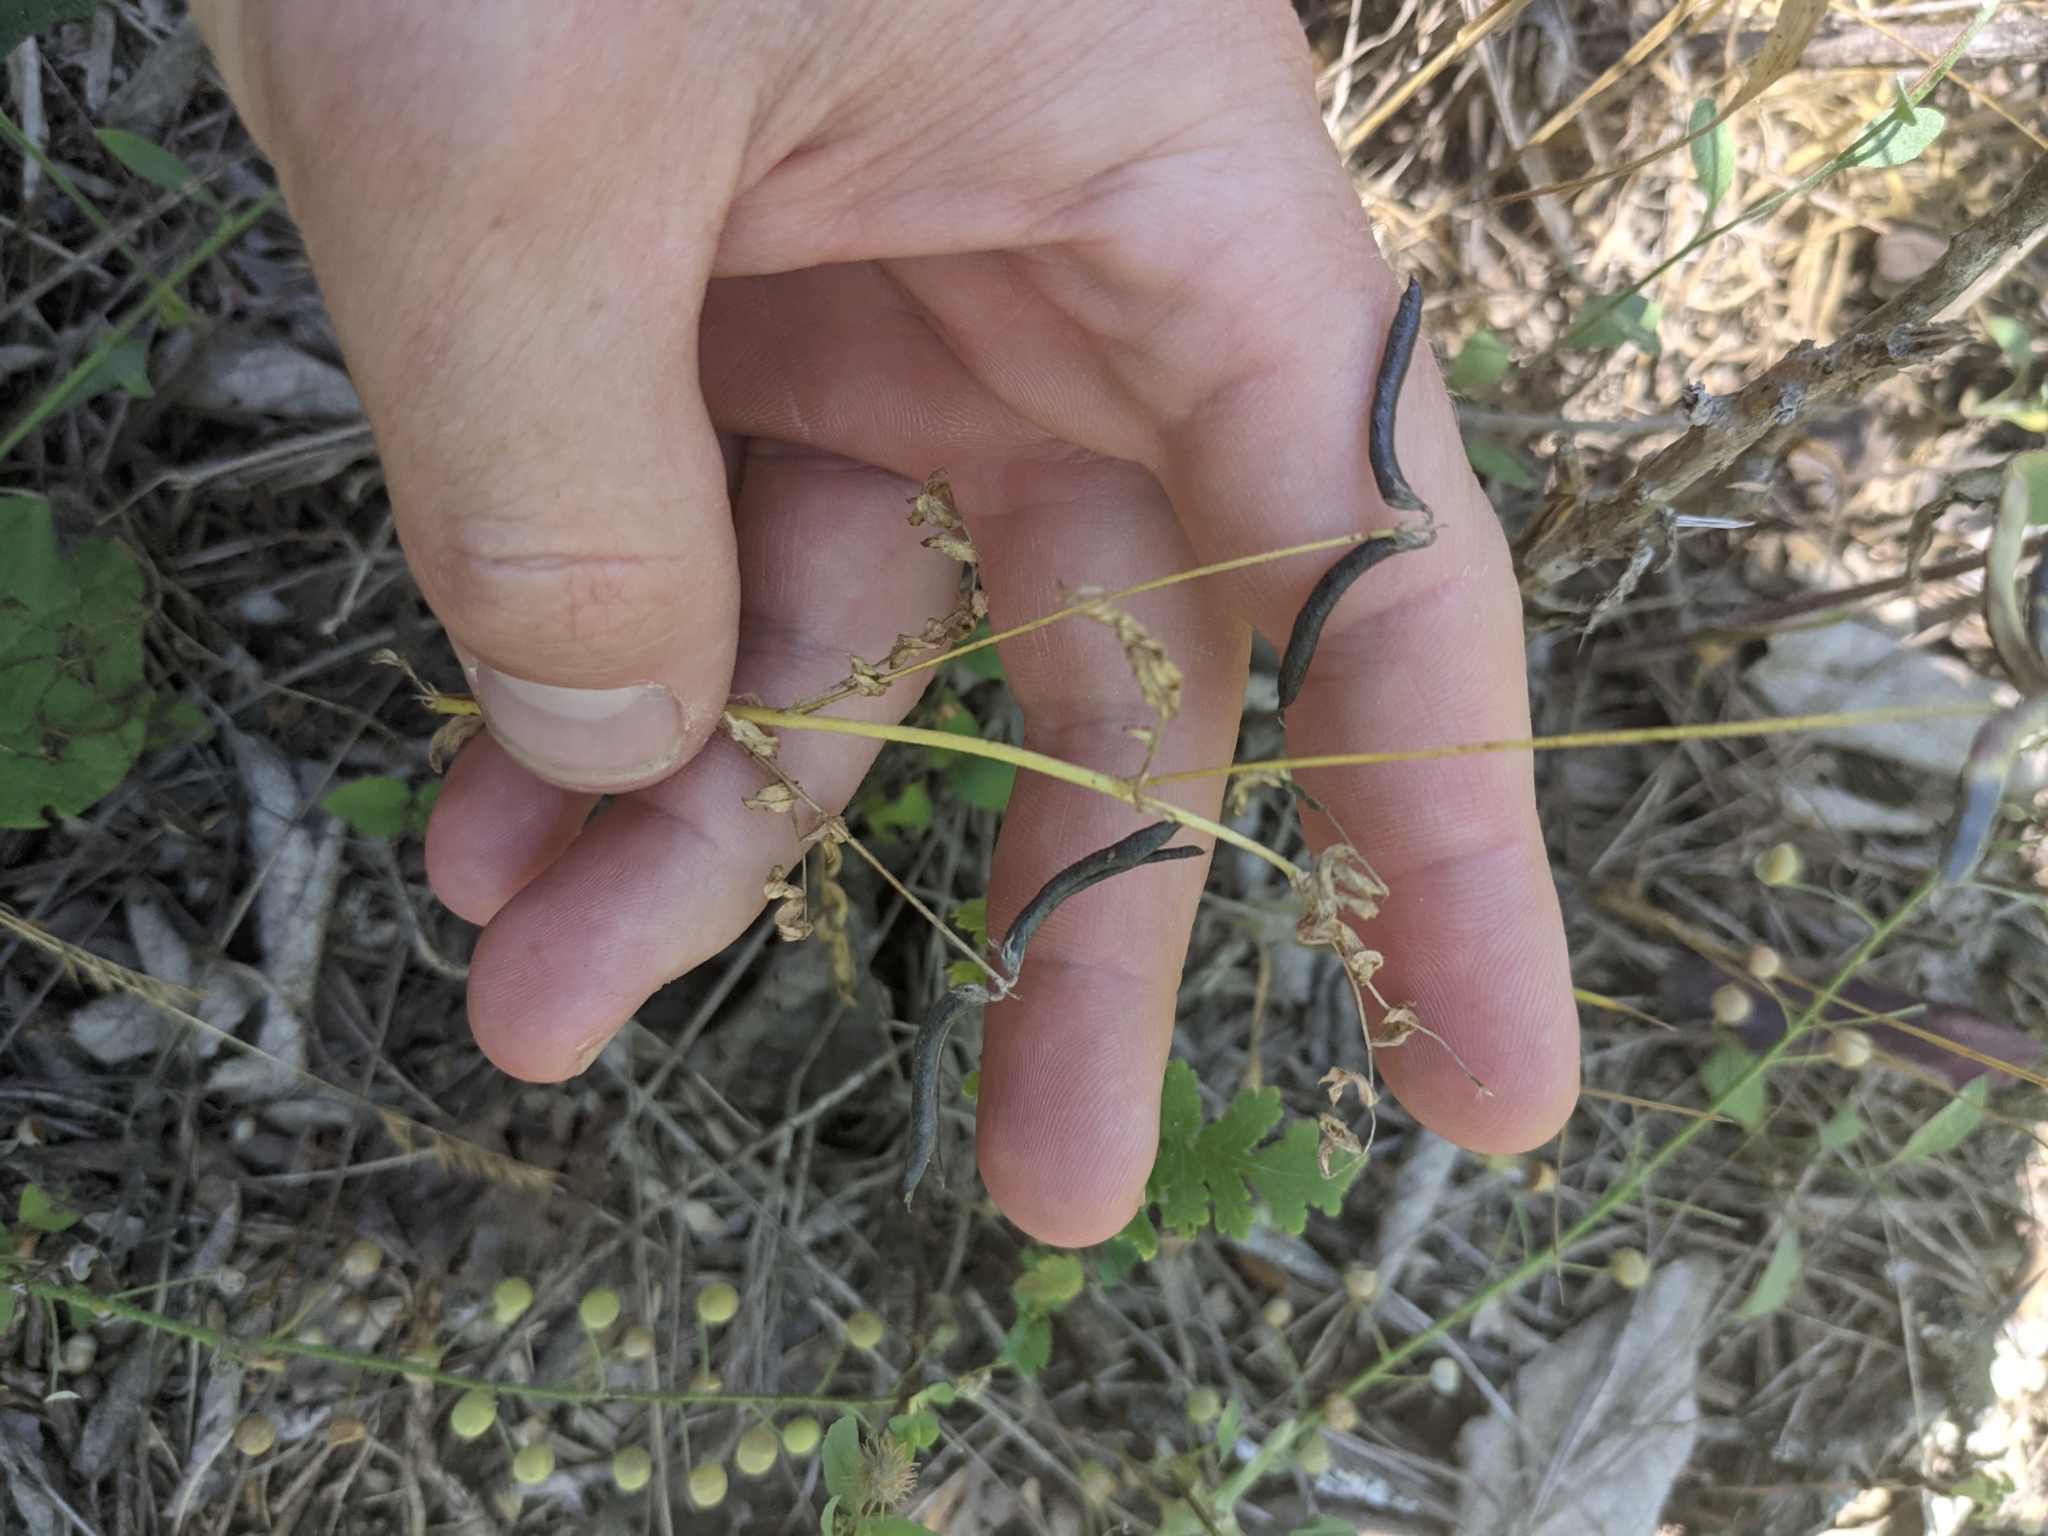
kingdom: Plantae
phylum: Tracheophyta
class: Magnoliopsida
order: Fabales
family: Fabaceae
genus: Astragalus
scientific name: Astragalus nuttallianus
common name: Smallflowered milkvetch
